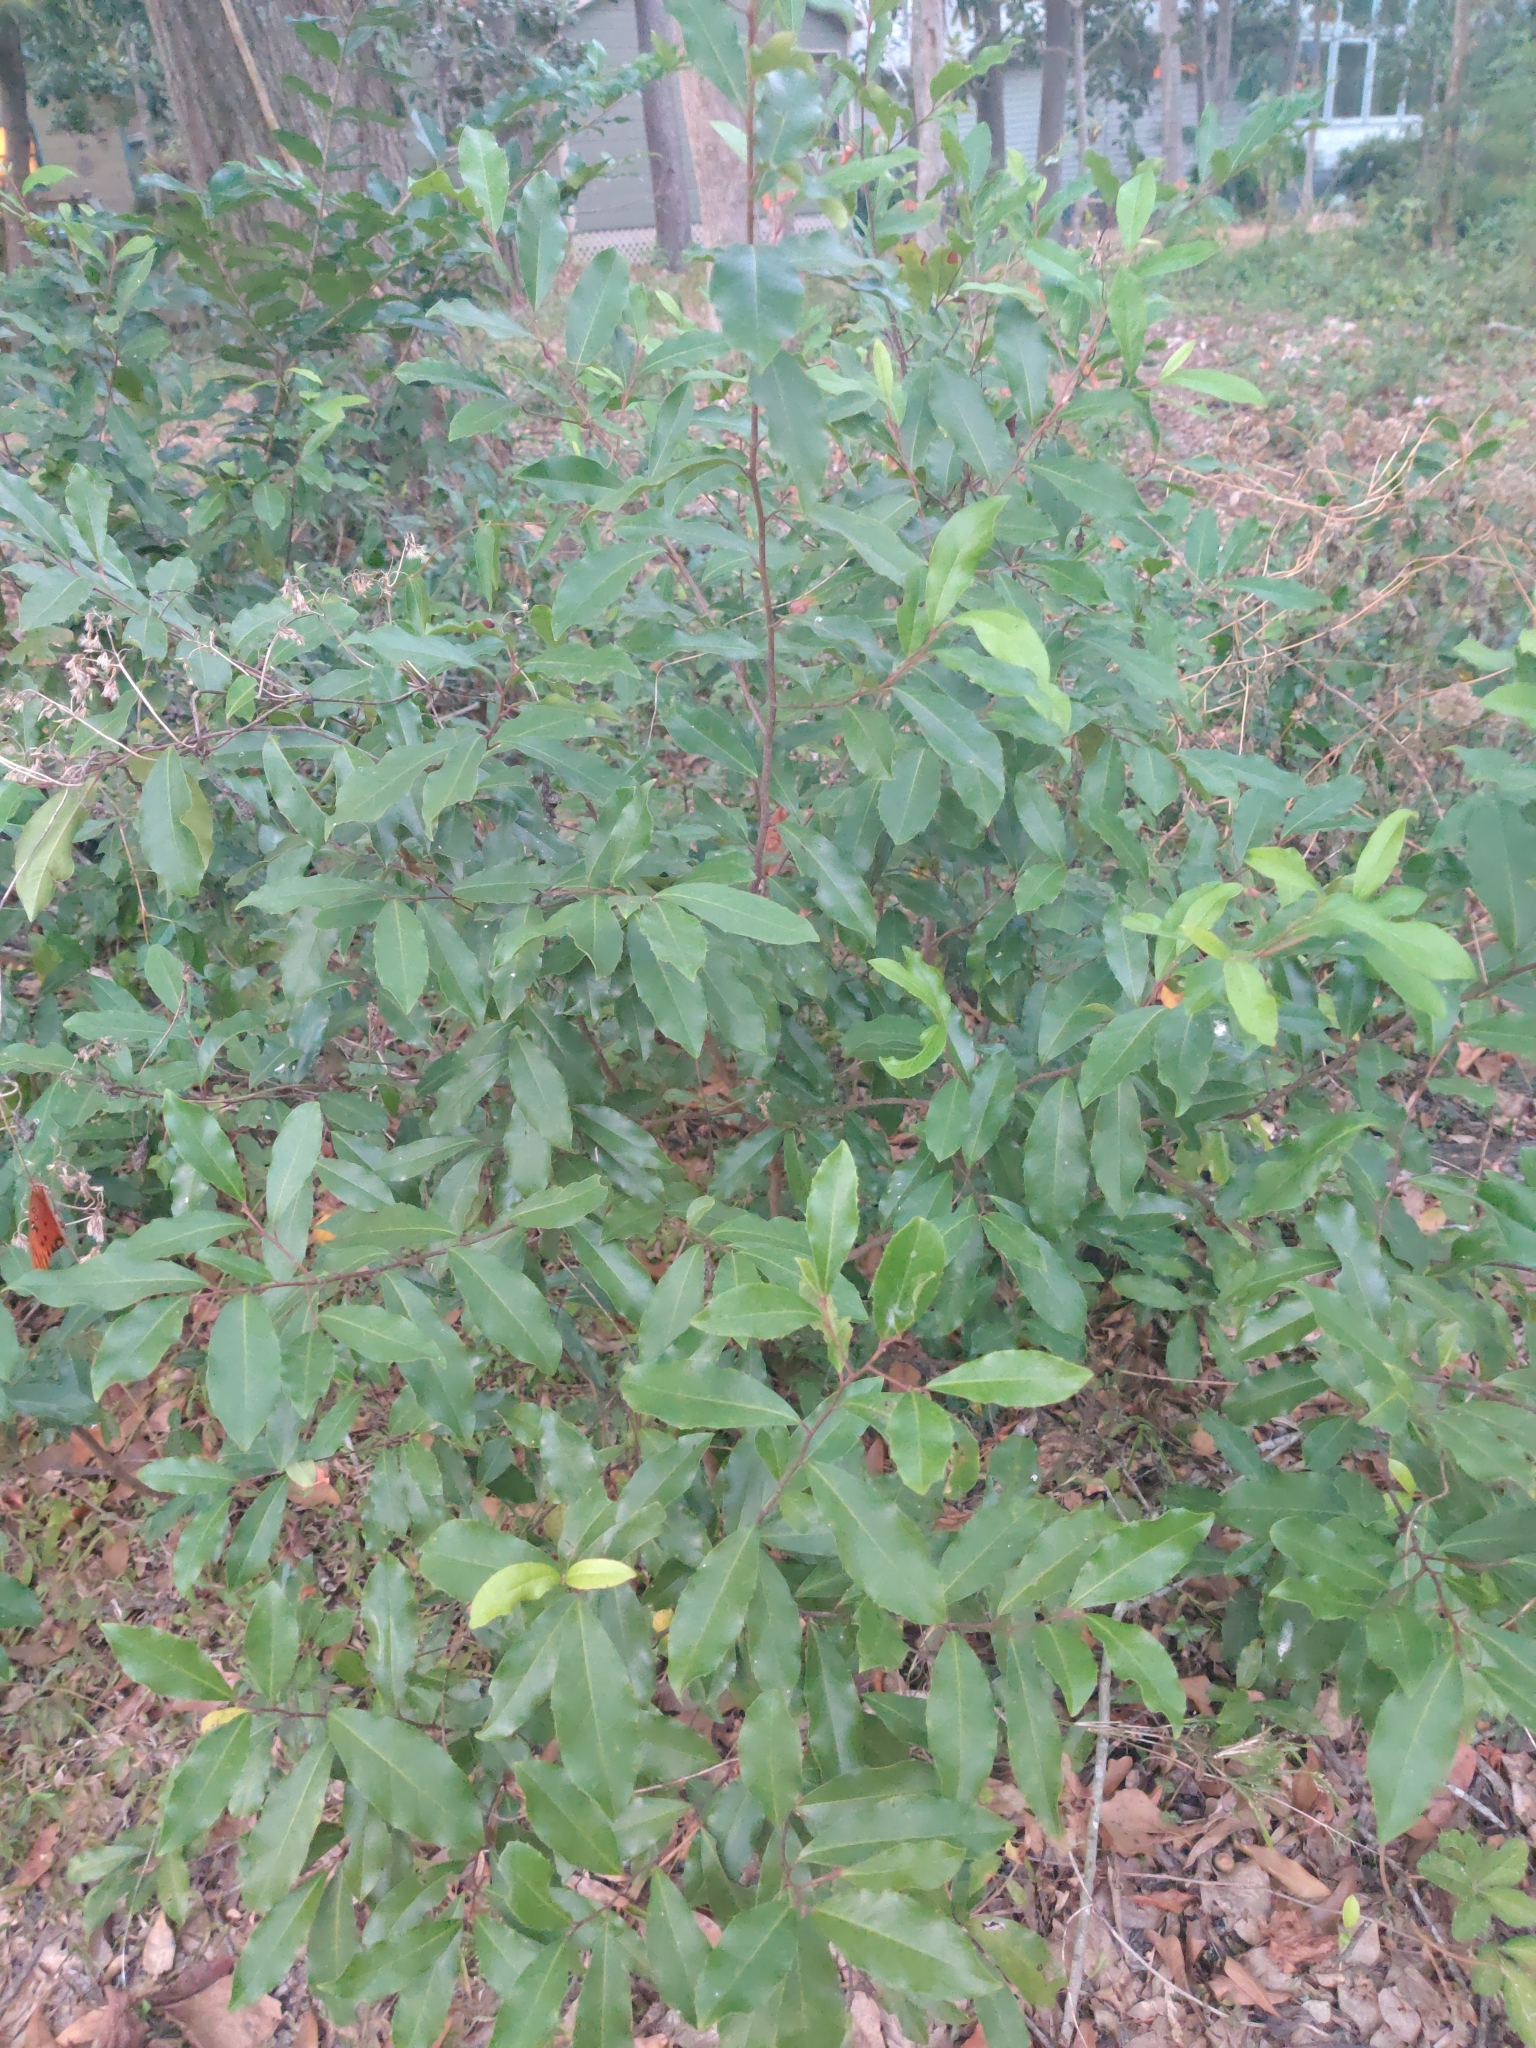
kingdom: Plantae
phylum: Tracheophyta
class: Magnoliopsida
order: Rosales
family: Rosaceae
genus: Prunus
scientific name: Prunus caroliniana
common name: Carolina laurel cherry
